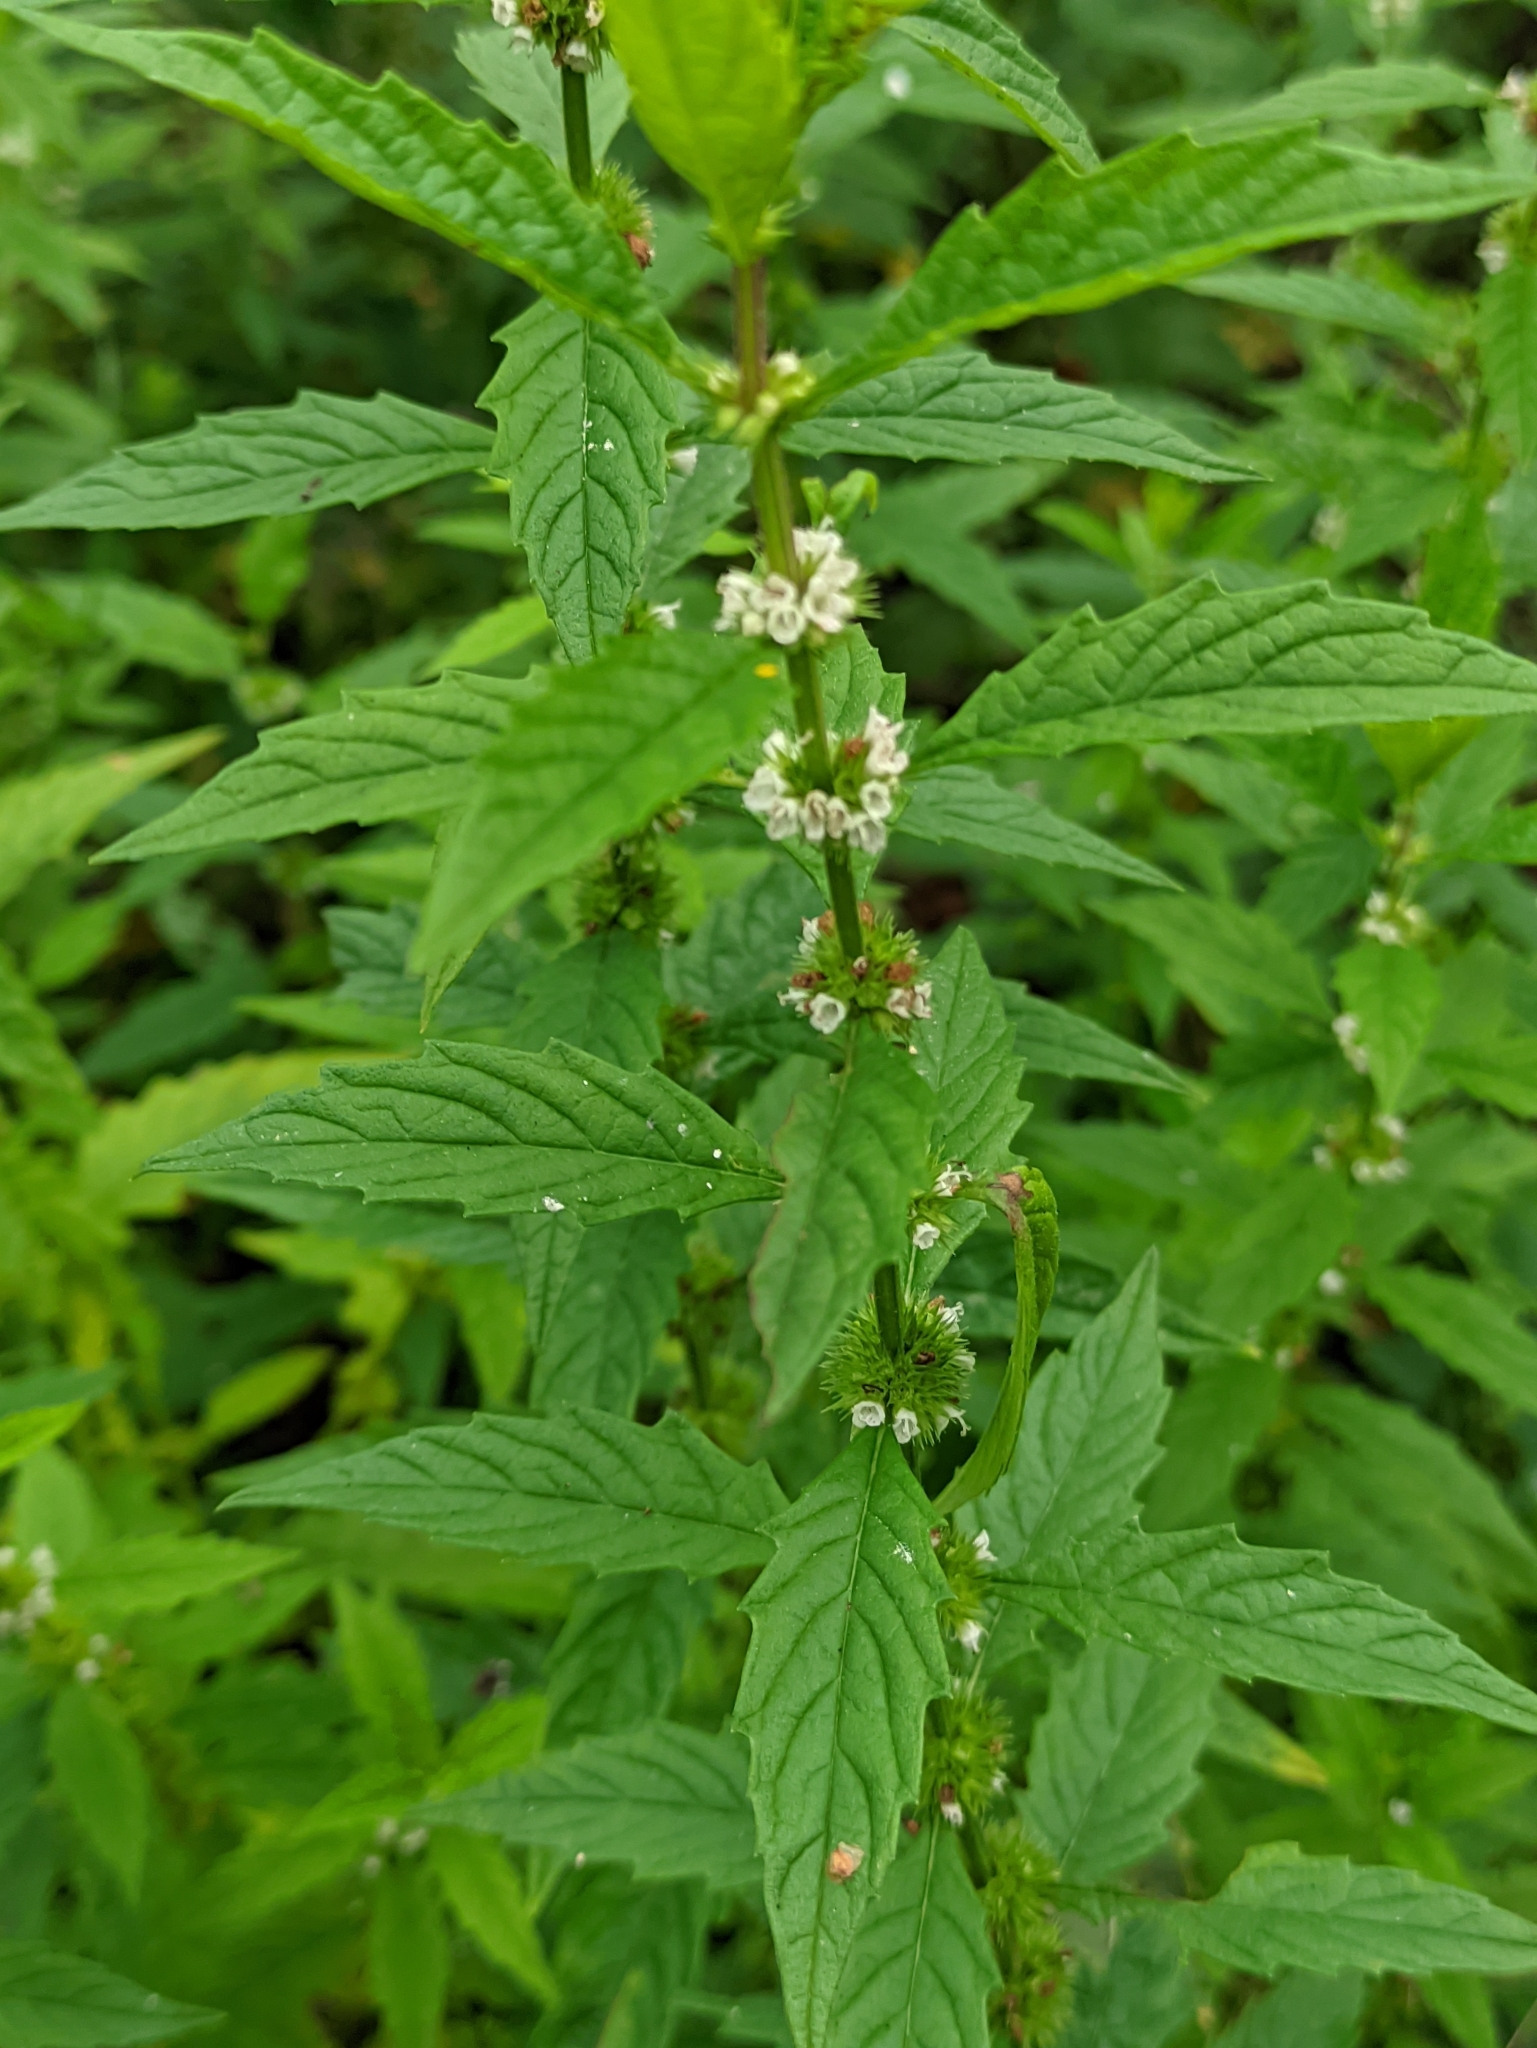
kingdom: Plantae
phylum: Tracheophyta
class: Magnoliopsida
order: Lamiales
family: Lamiaceae
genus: Lycopus
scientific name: Lycopus europaeus
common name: European bugleweed
